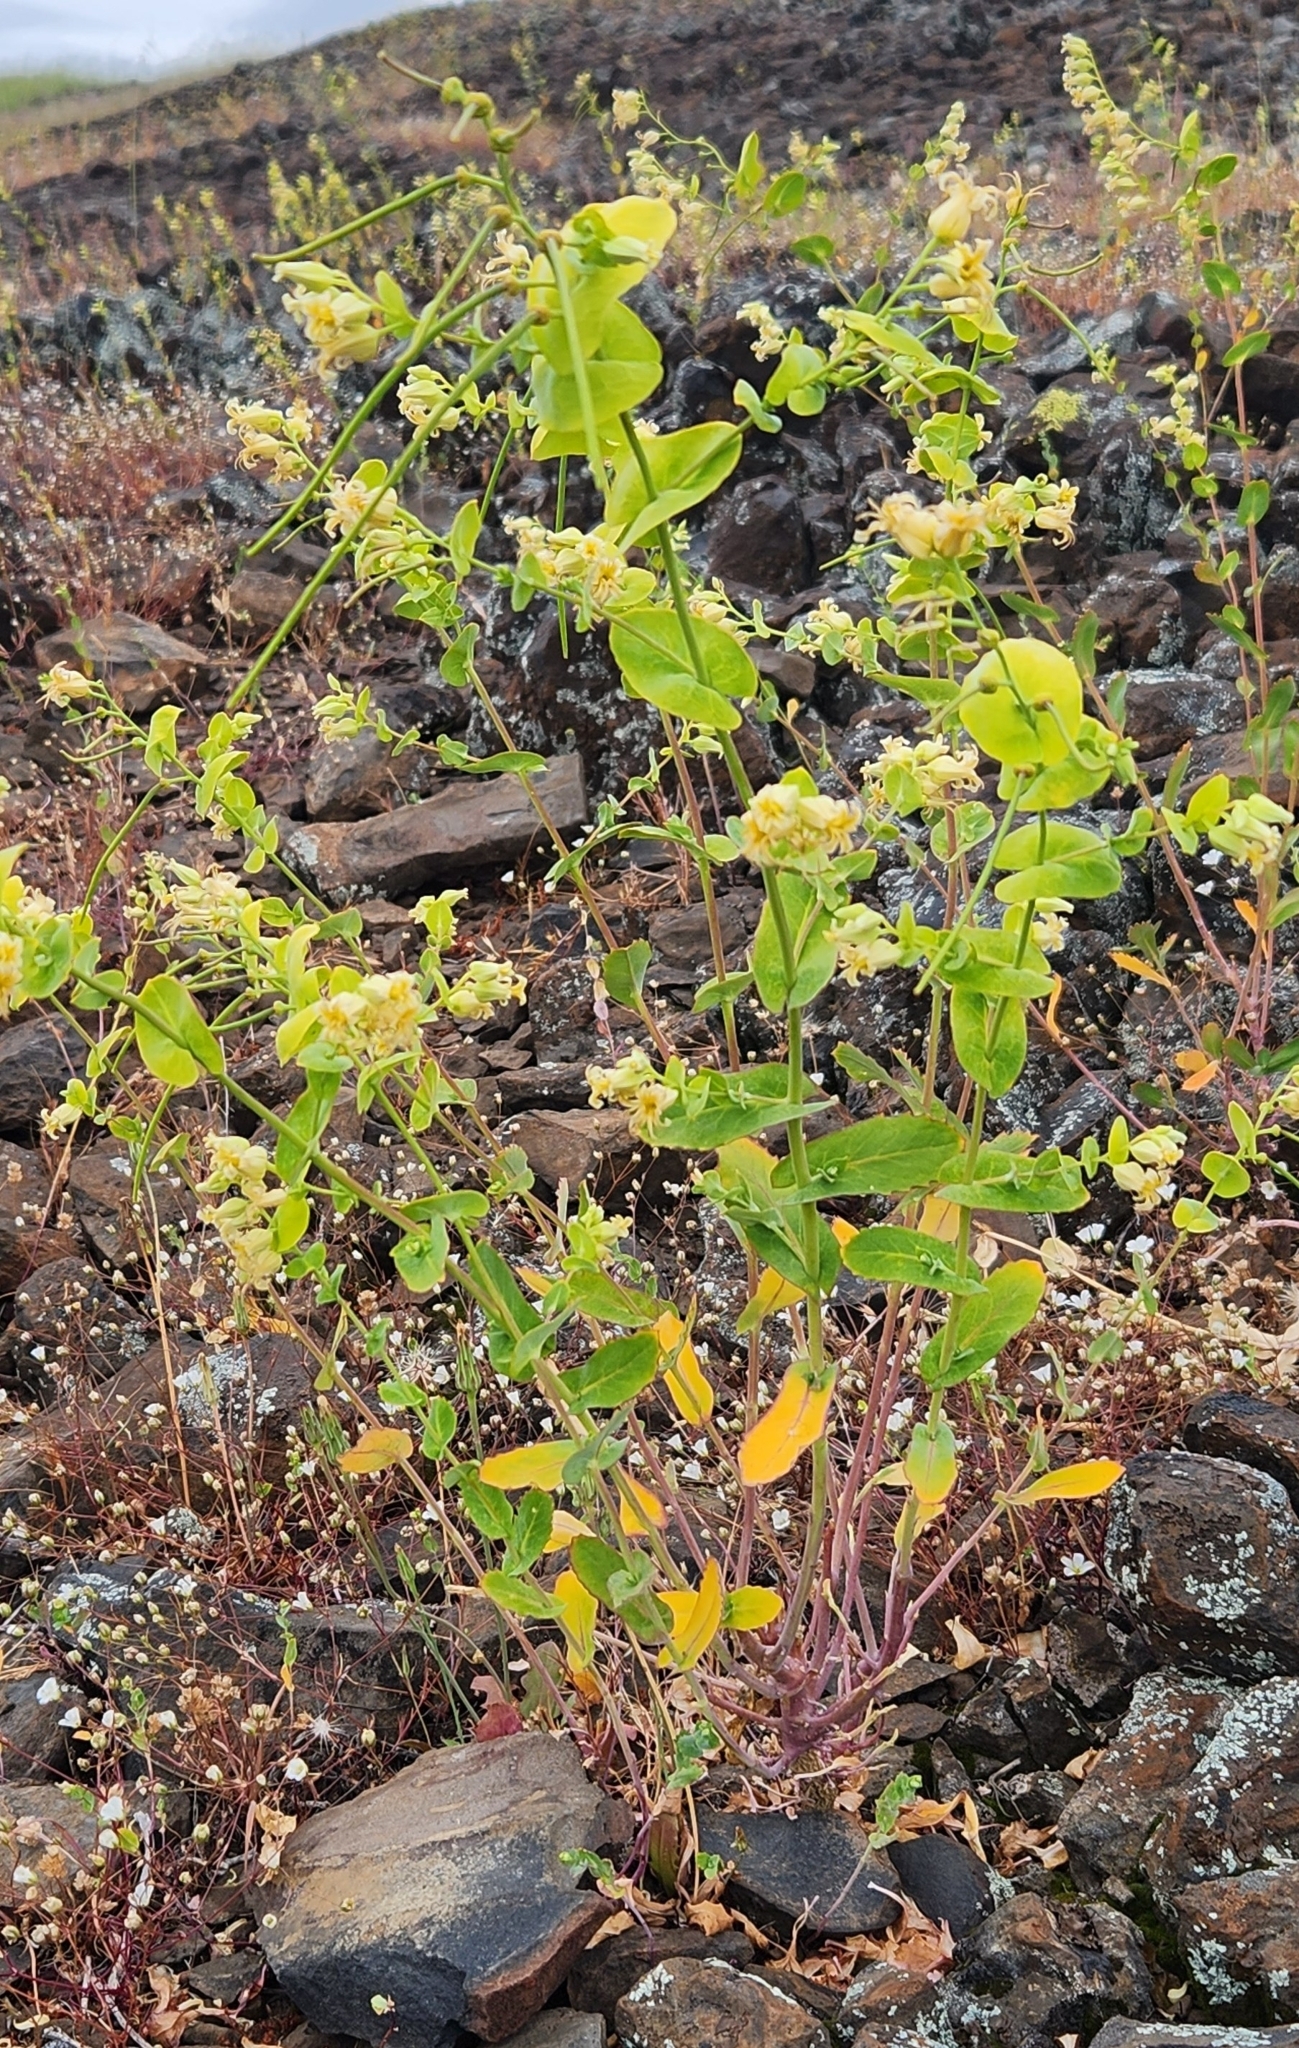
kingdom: Plantae
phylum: Tracheophyta
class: Magnoliopsida
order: Brassicales
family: Brassicaceae
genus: Streptanthus
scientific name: Streptanthus tortuosus
